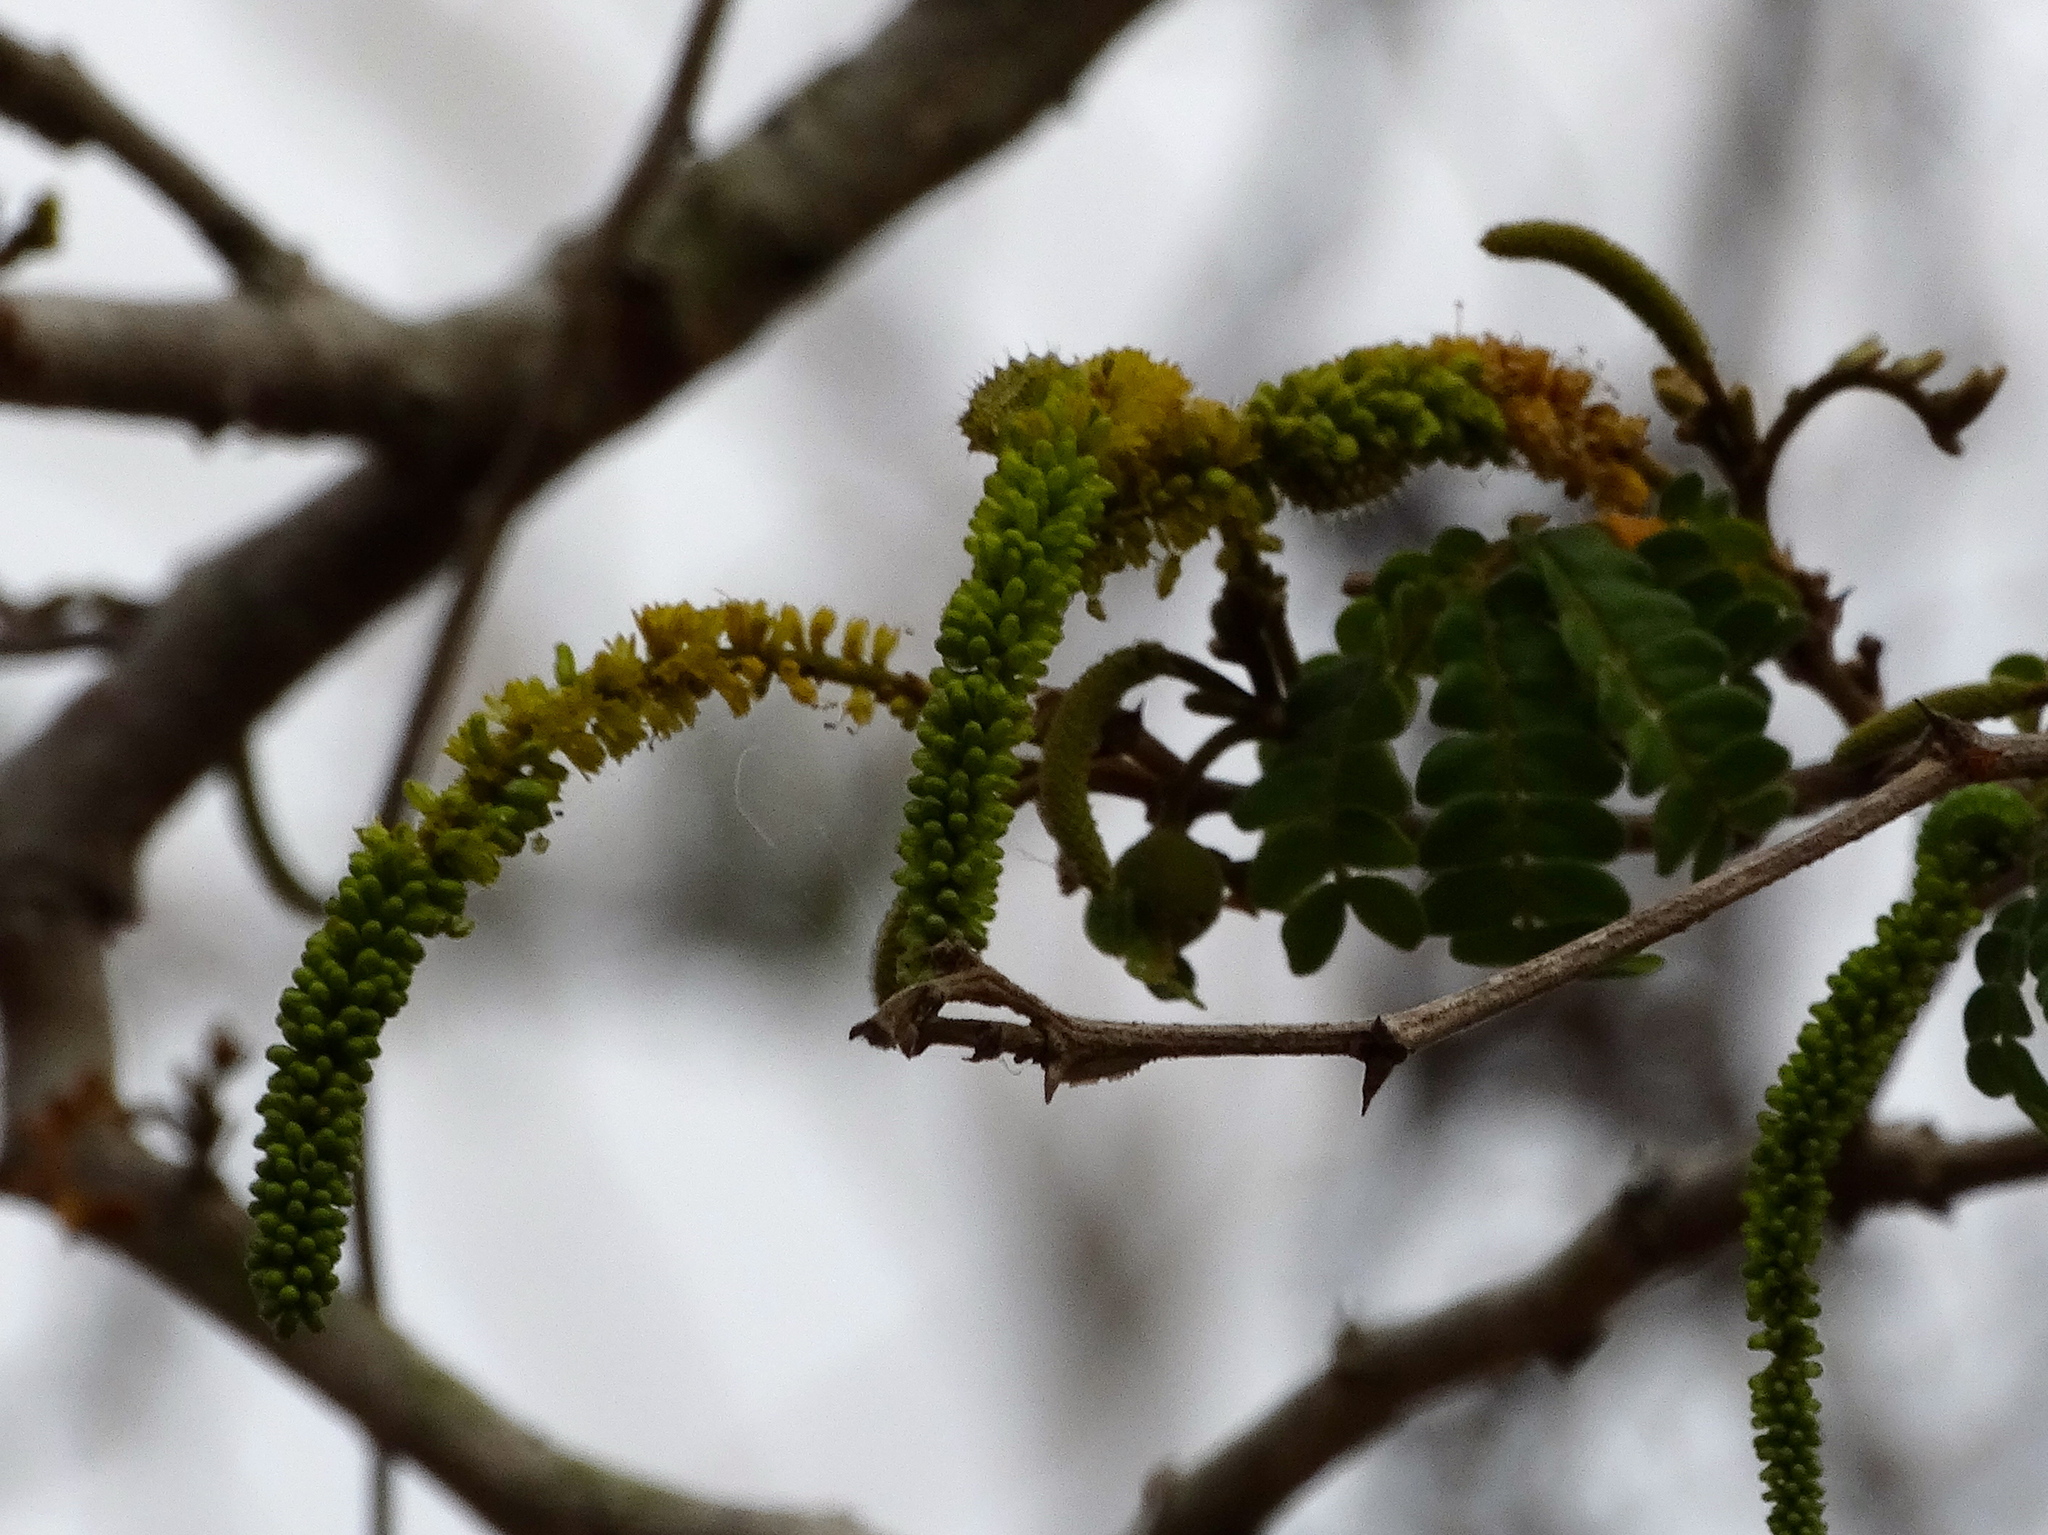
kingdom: Plantae
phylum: Tracheophyta
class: Magnoliopsida
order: Fabales
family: Fabaceae
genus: Pityrocarpa
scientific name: Pityrocarpa obliqua
